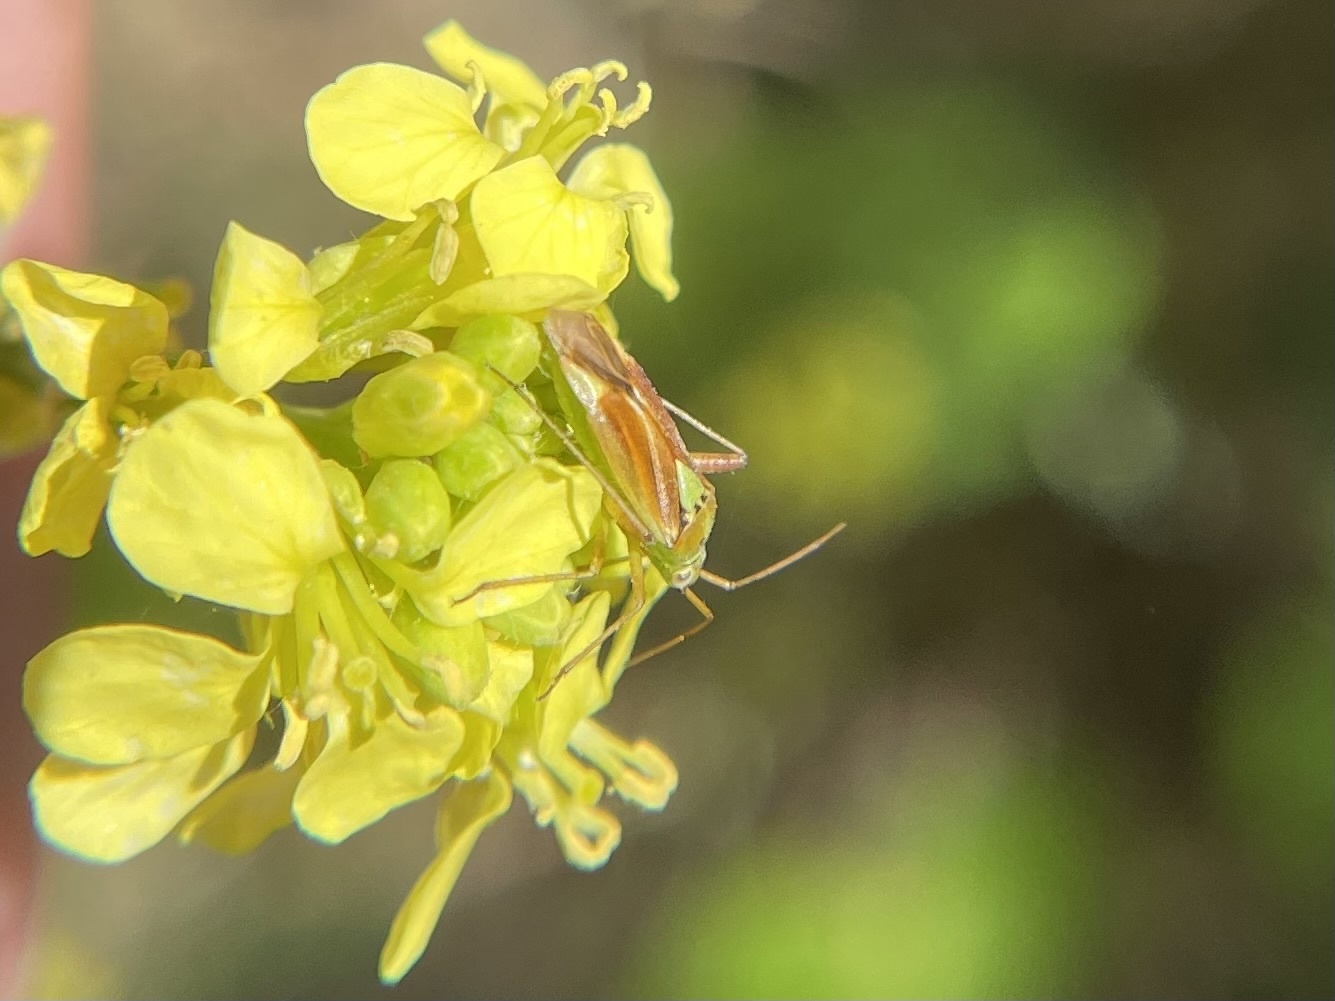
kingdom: Animalia
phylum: Arthropoda
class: Insecta
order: Hemiptera
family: Miridae
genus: Closterotomus
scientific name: Closterotomus norvegicus
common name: Plant bug
